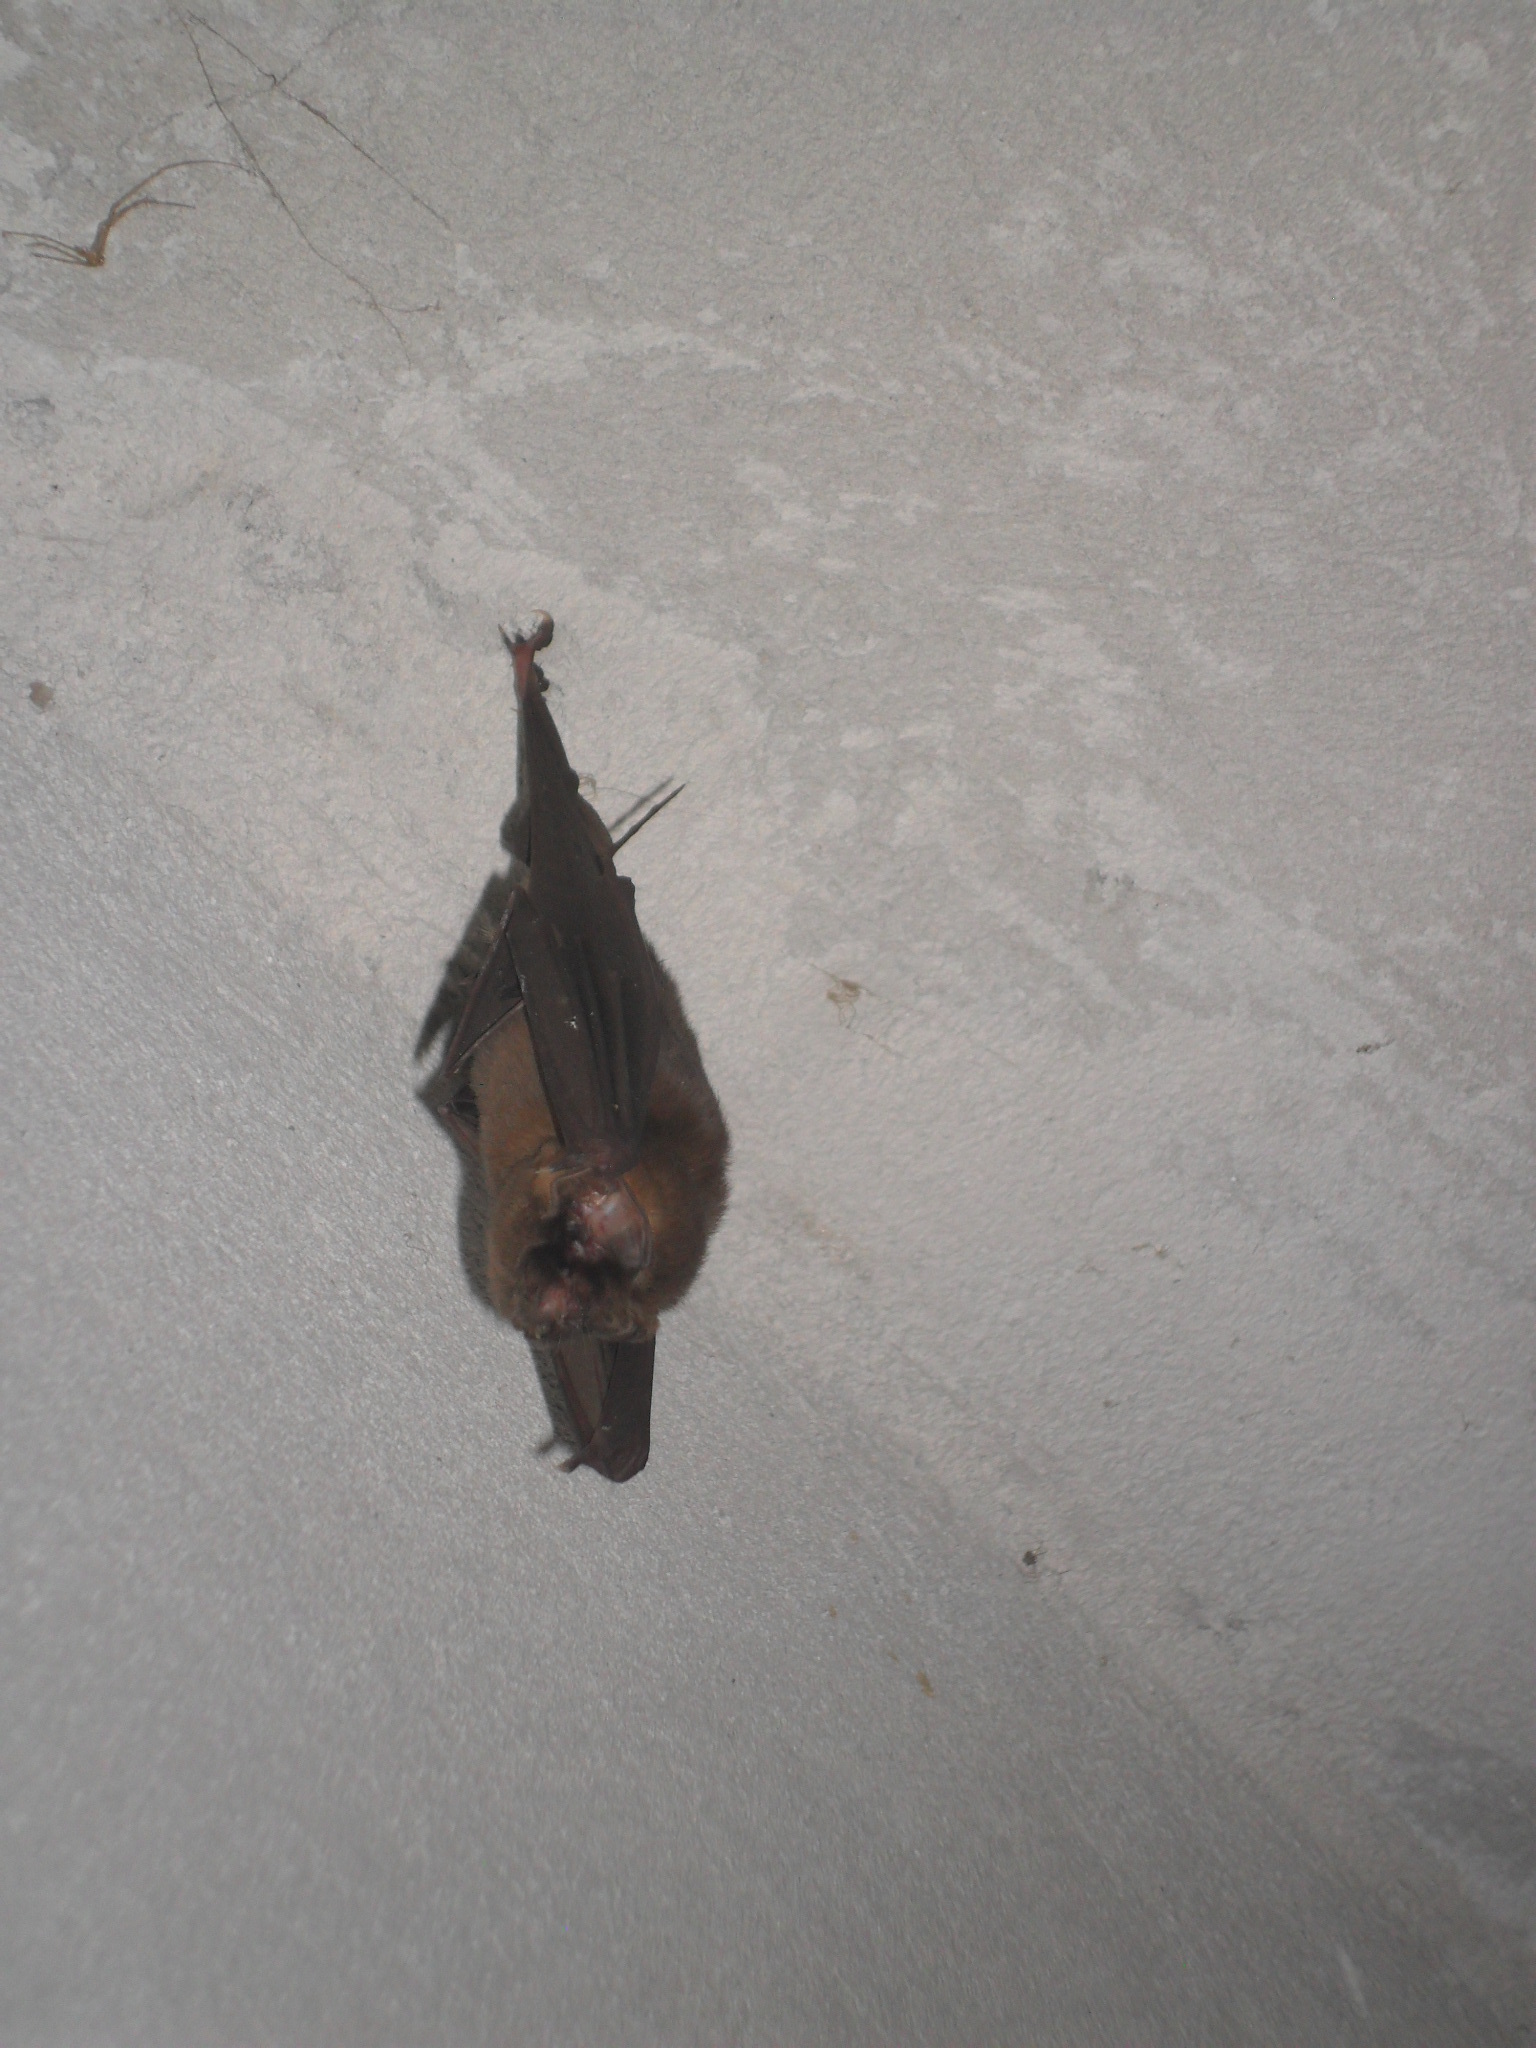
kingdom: Animalia
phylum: Chordata
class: Mammalia
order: Chiroptera
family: Mormoopidae
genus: Mormoops
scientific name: Mormoops megalophylla
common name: Peters's ghost-faced bat
